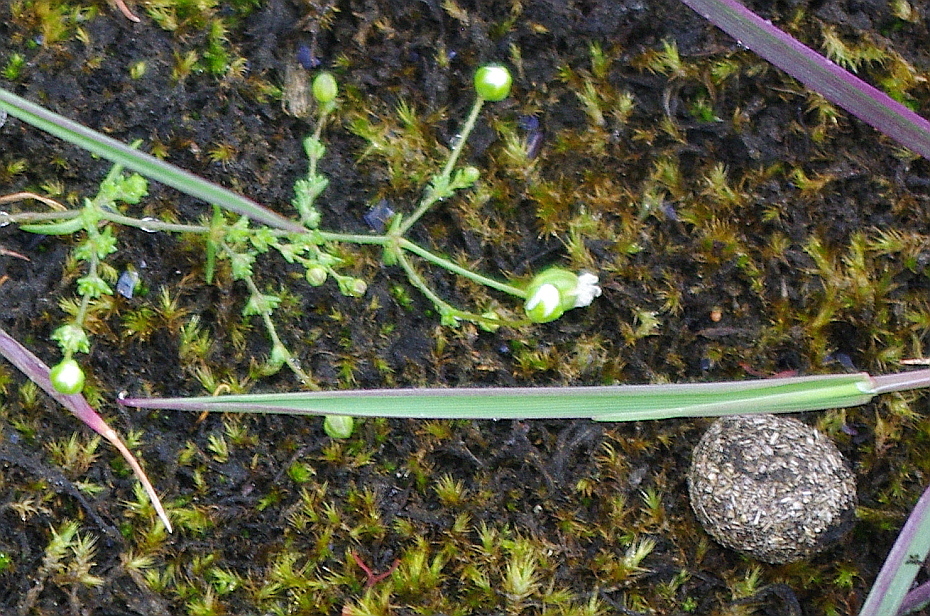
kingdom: Animalia
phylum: Chordata
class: Mammalia
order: Lagomorpha
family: Leporidae
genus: Lepus
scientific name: Lepus timidus
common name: Mountain hare
